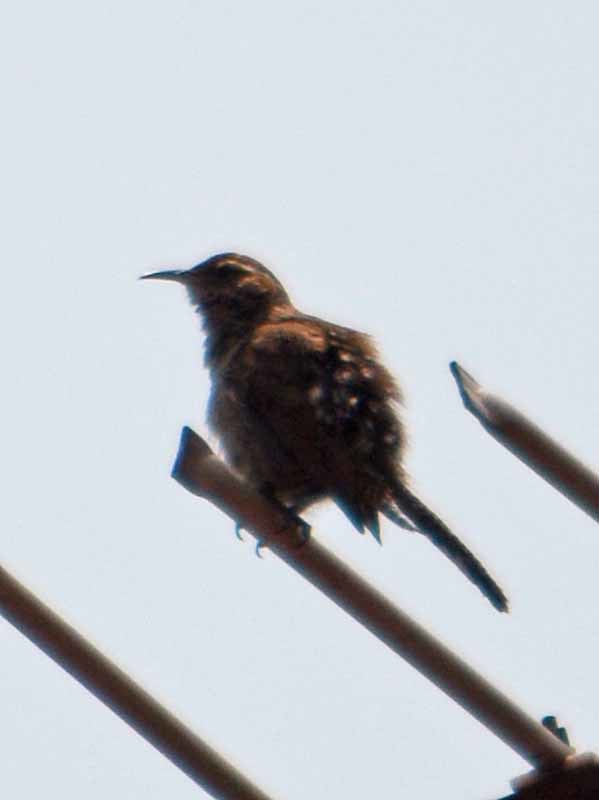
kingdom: Animalia
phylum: Chordata
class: Aves
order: Passeriformes
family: Troglodytidae
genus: Thryomanes
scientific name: Thryomanes bewickii
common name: Bewick's wren
